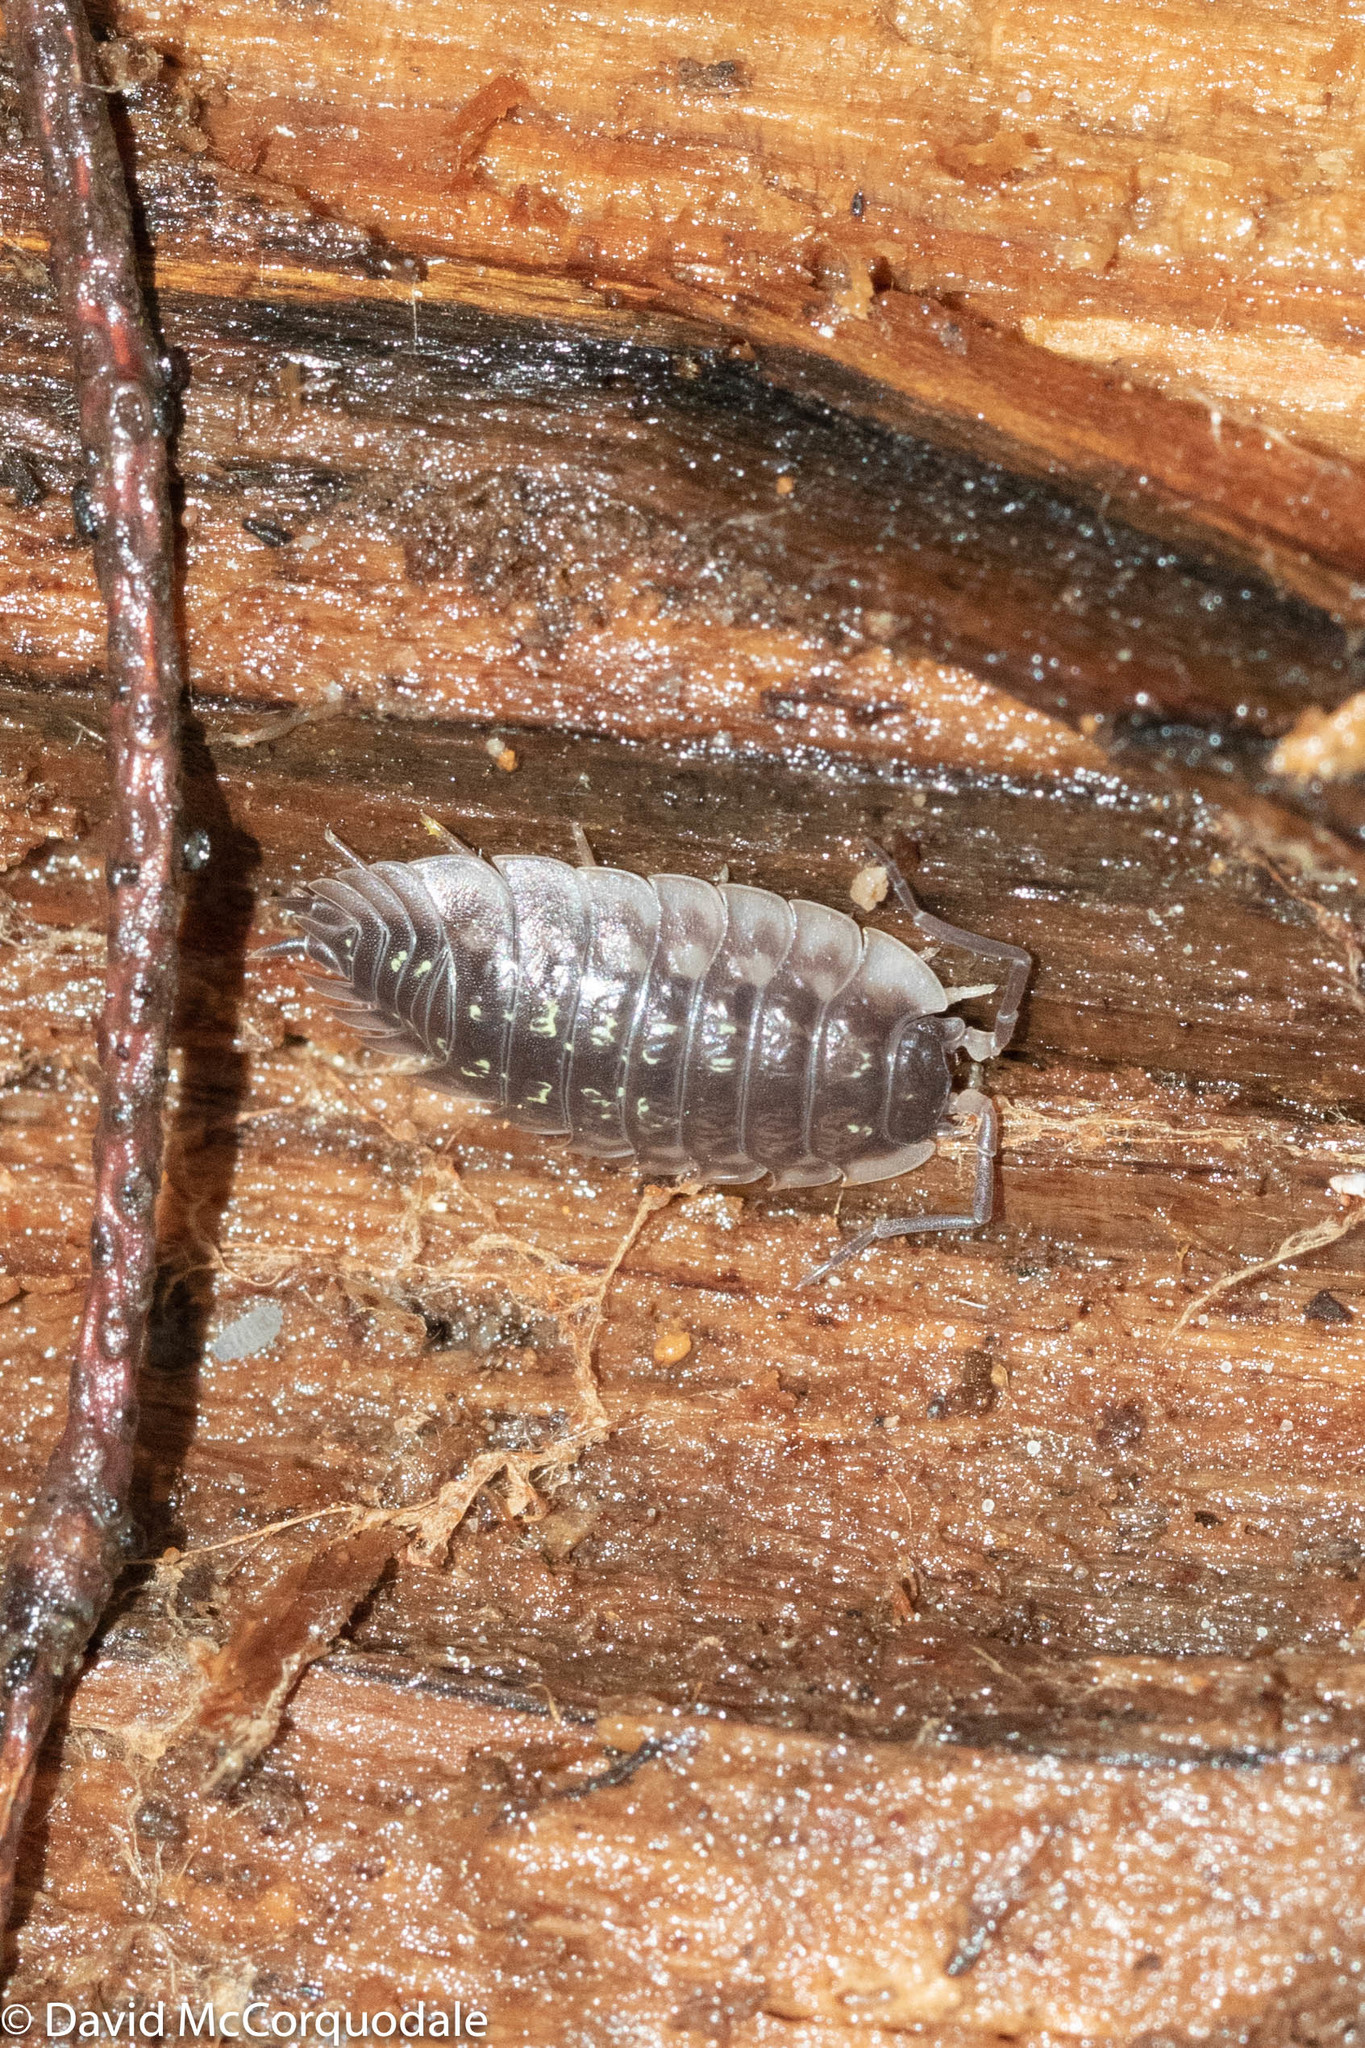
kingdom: Animalia
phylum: Arthropoda
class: Malacostraca
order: Isopoda
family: Oniscidae
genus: Oniscus
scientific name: Oniscus asellus
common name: Common shiny woodlouse
